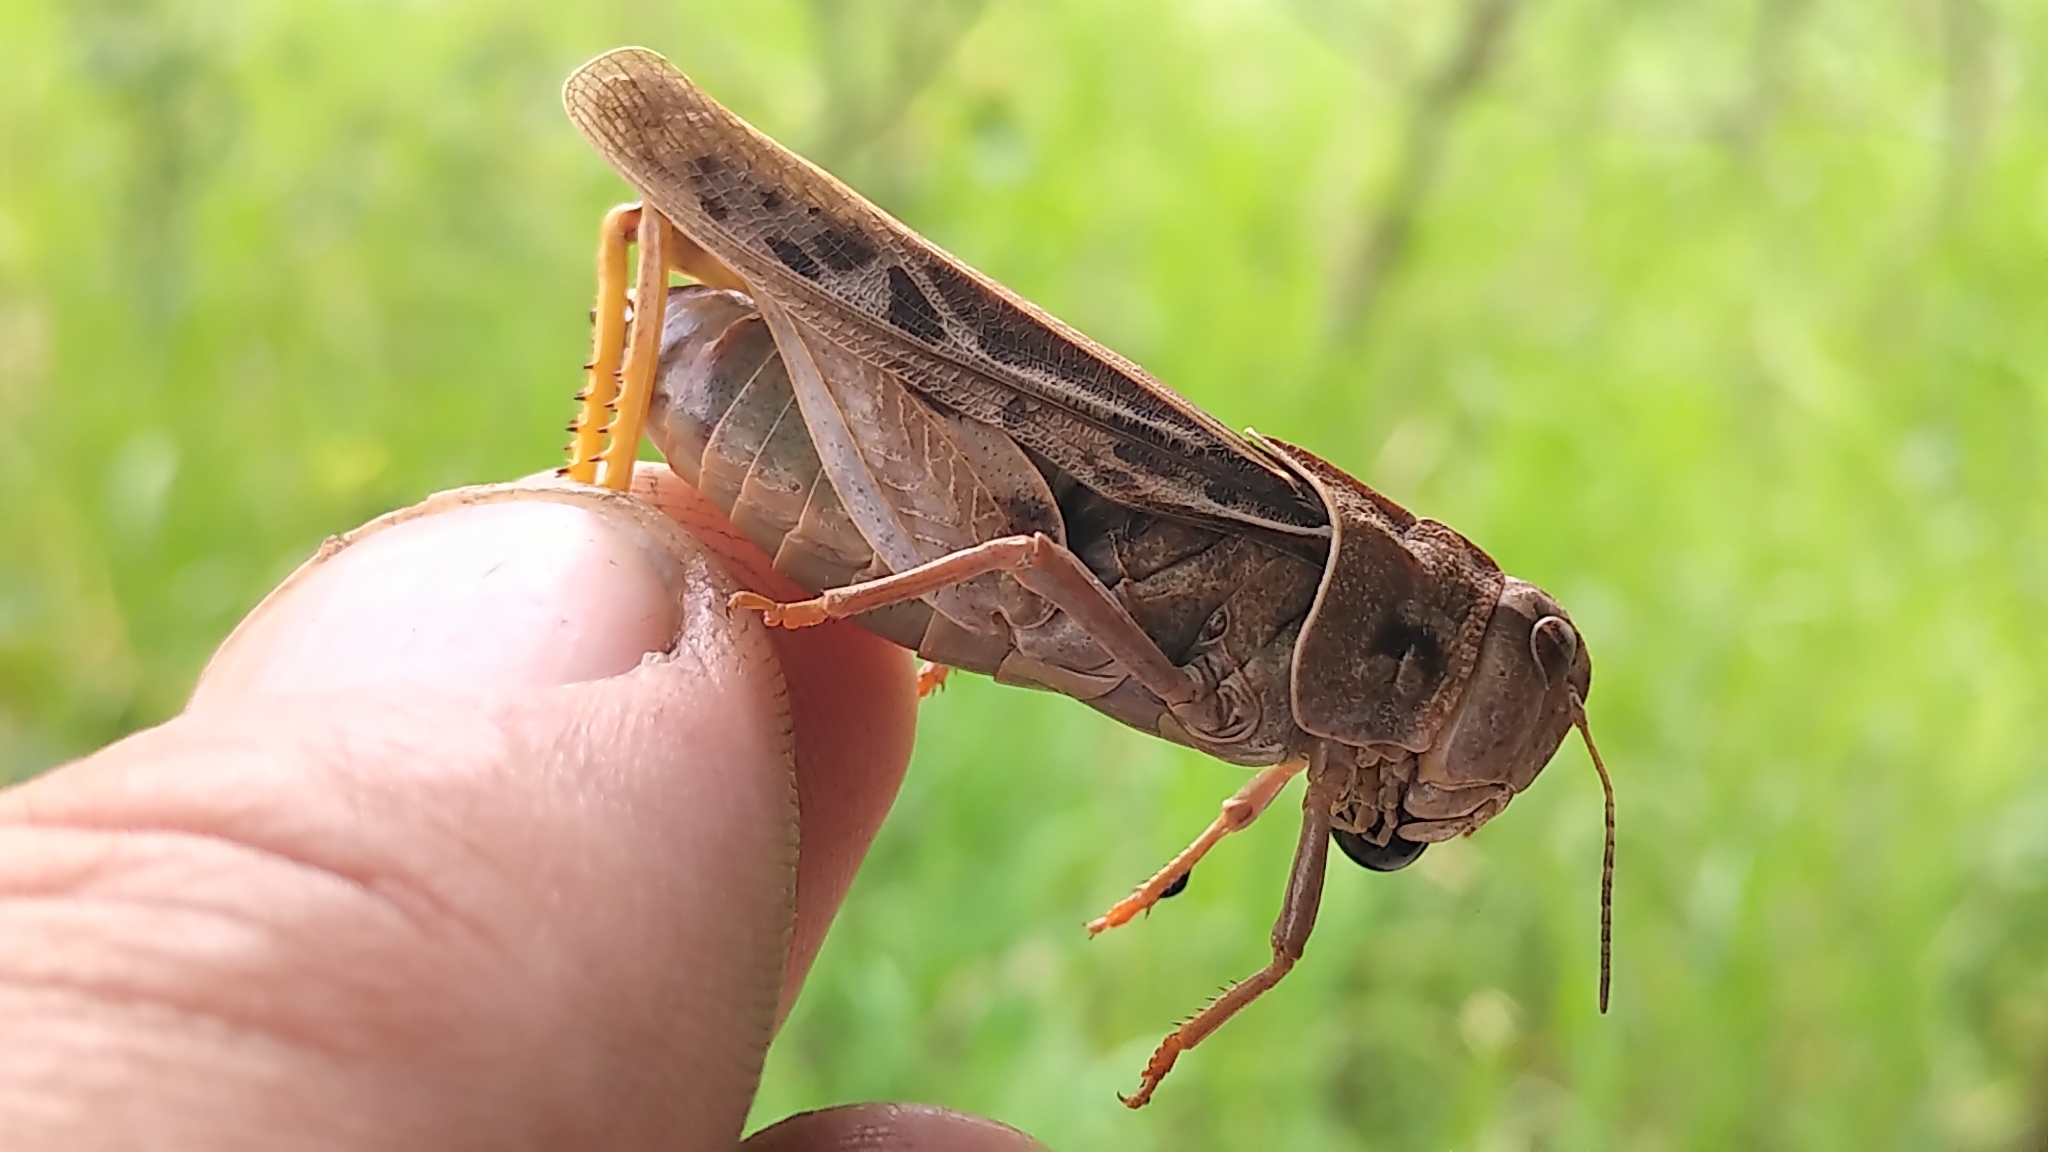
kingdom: Animalia
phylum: Arthropoda
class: Insecta
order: Orthoptera
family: Acrididae
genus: Pardalophora
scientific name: Pardalophora apiculata
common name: Coral-winged locust
